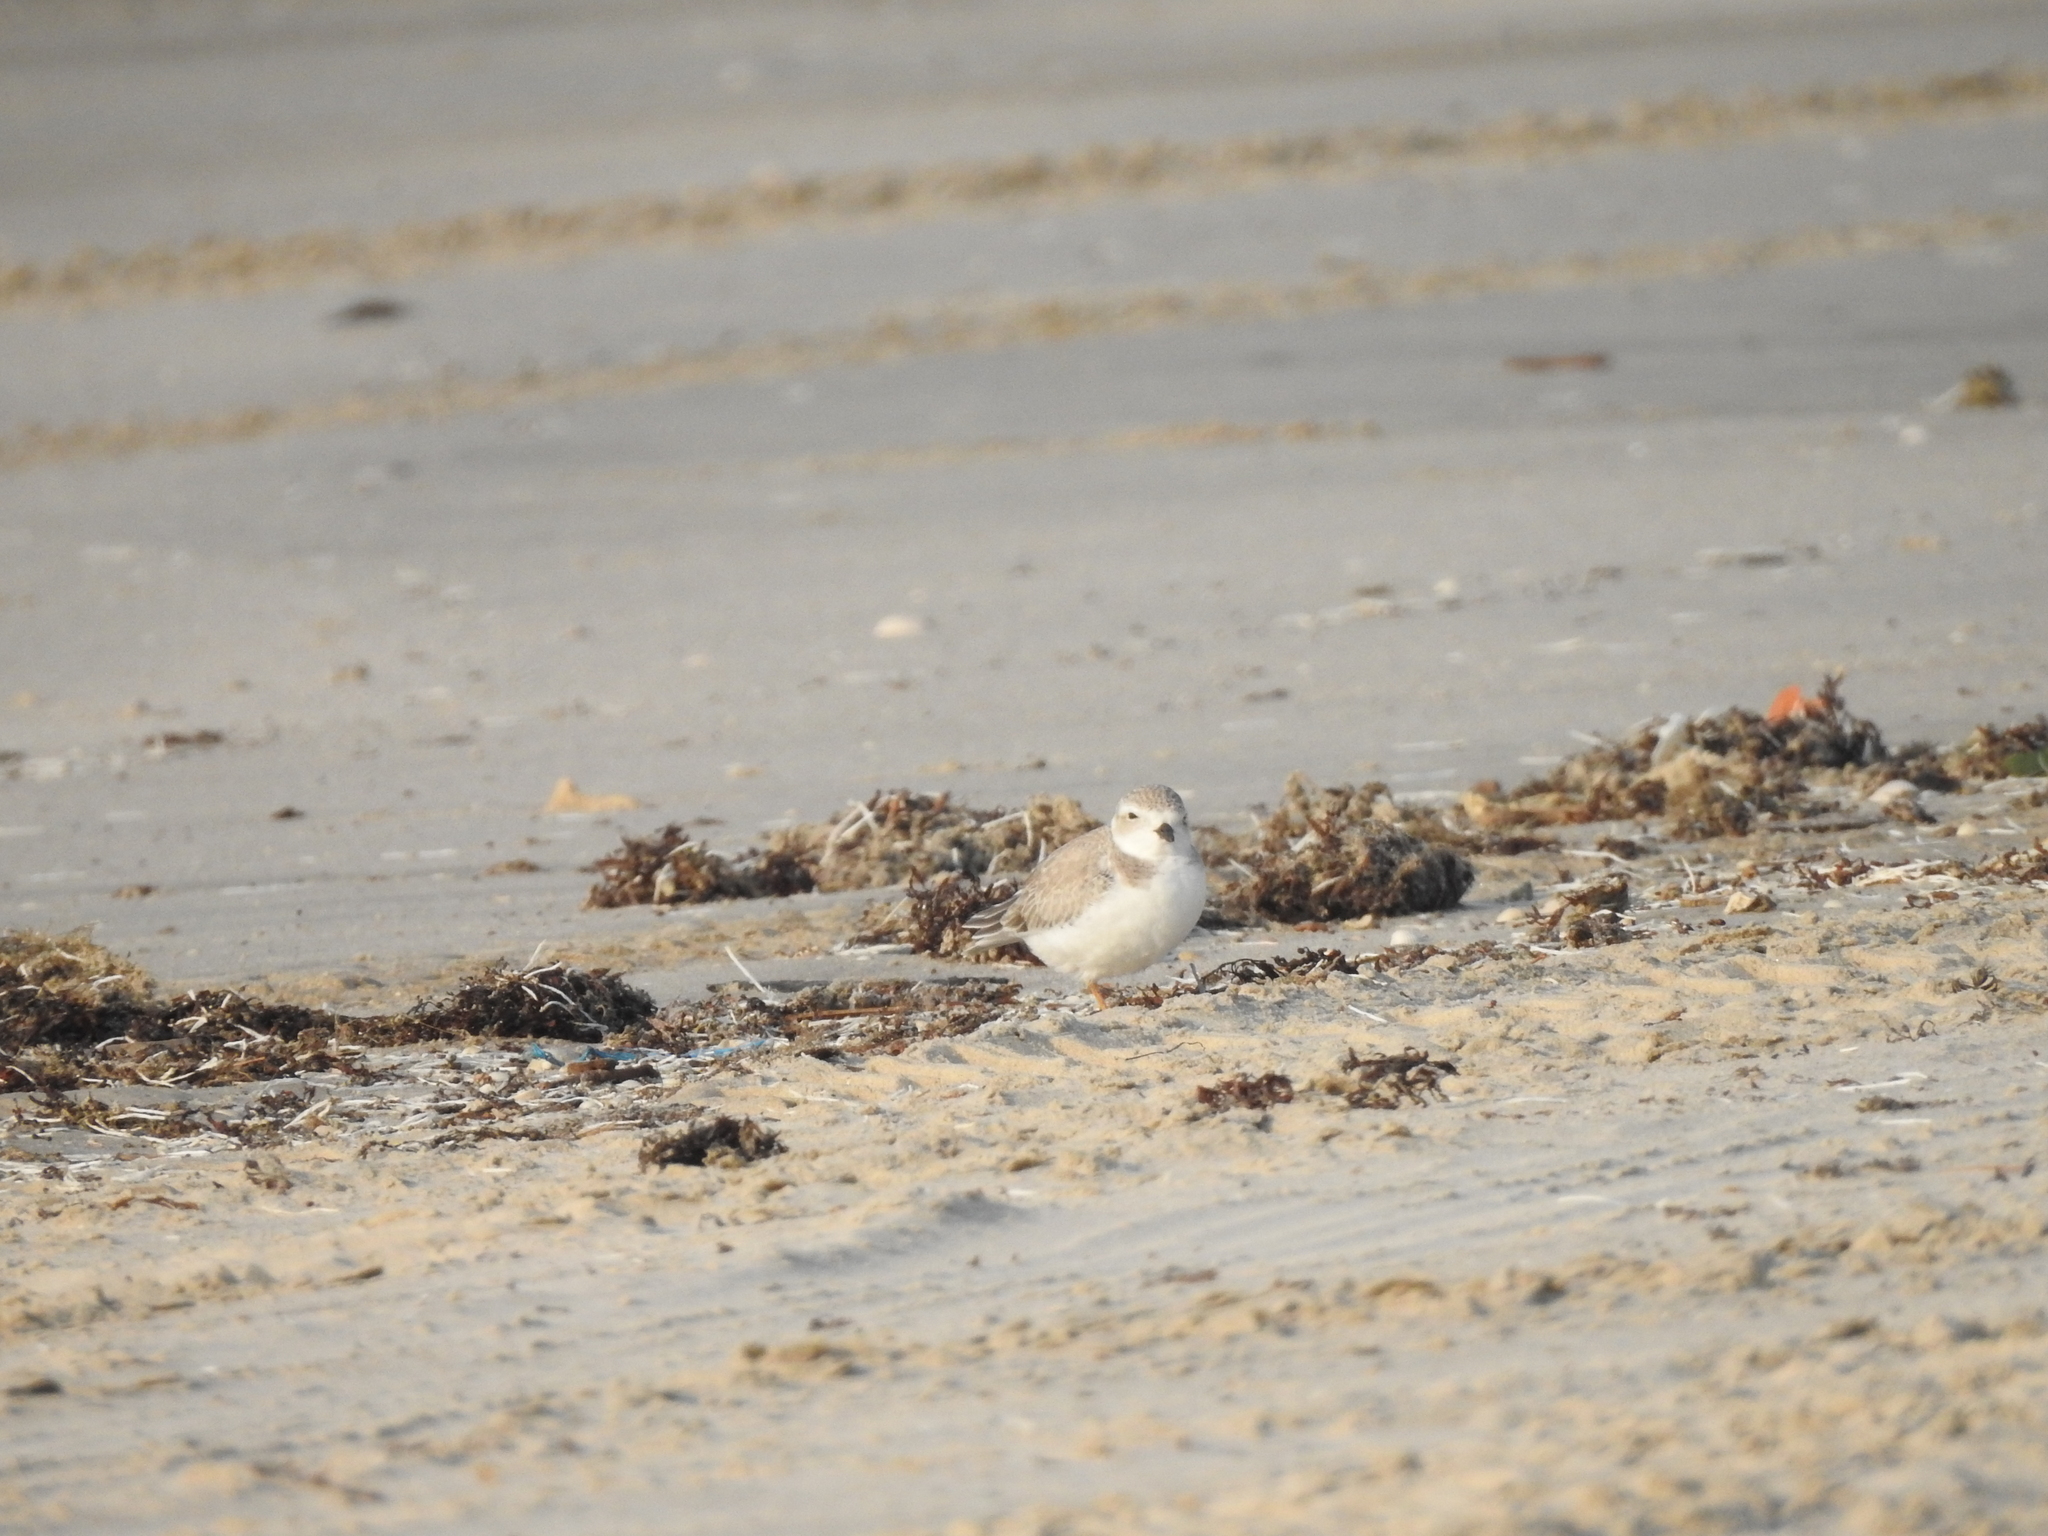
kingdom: Animalia
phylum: Chordata
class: Aves
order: Charadriiformes
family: Charadriidae
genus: Charadrius
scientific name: Charadrius melodus
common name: Piping plover
